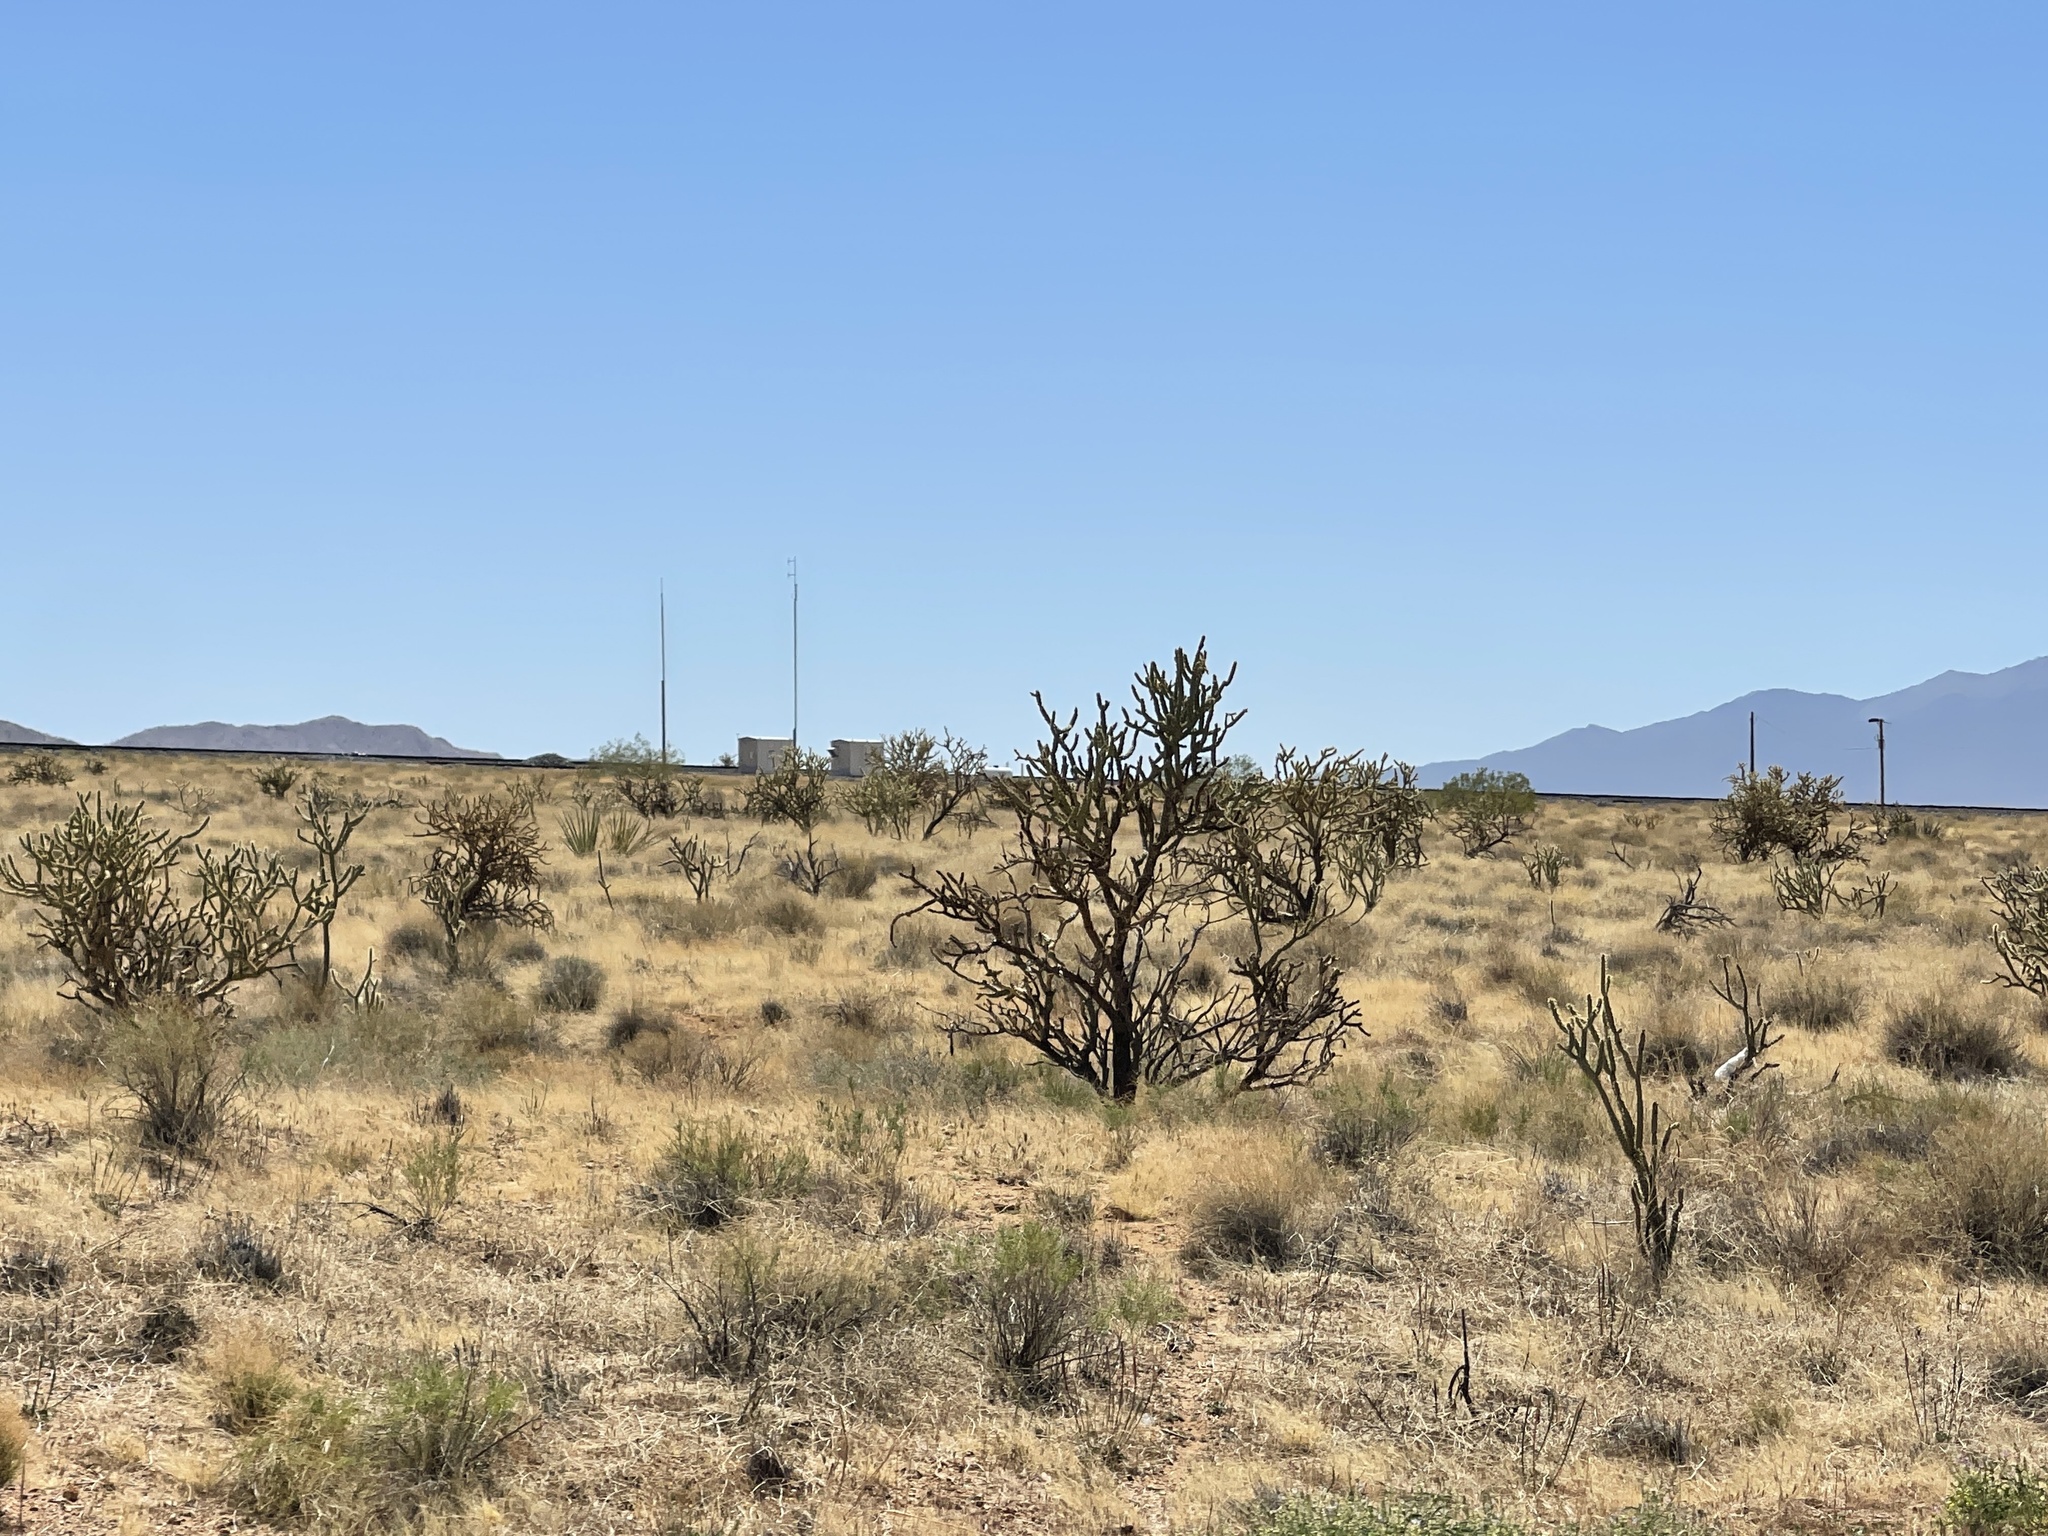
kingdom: Plantae
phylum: Tracheophyta
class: Magnoliopsida
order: Caryophyllales
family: Cactaceae
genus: Cylindropuntia
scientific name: Cylindropuntia acanthocarpa
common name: Buckhorn cholla
